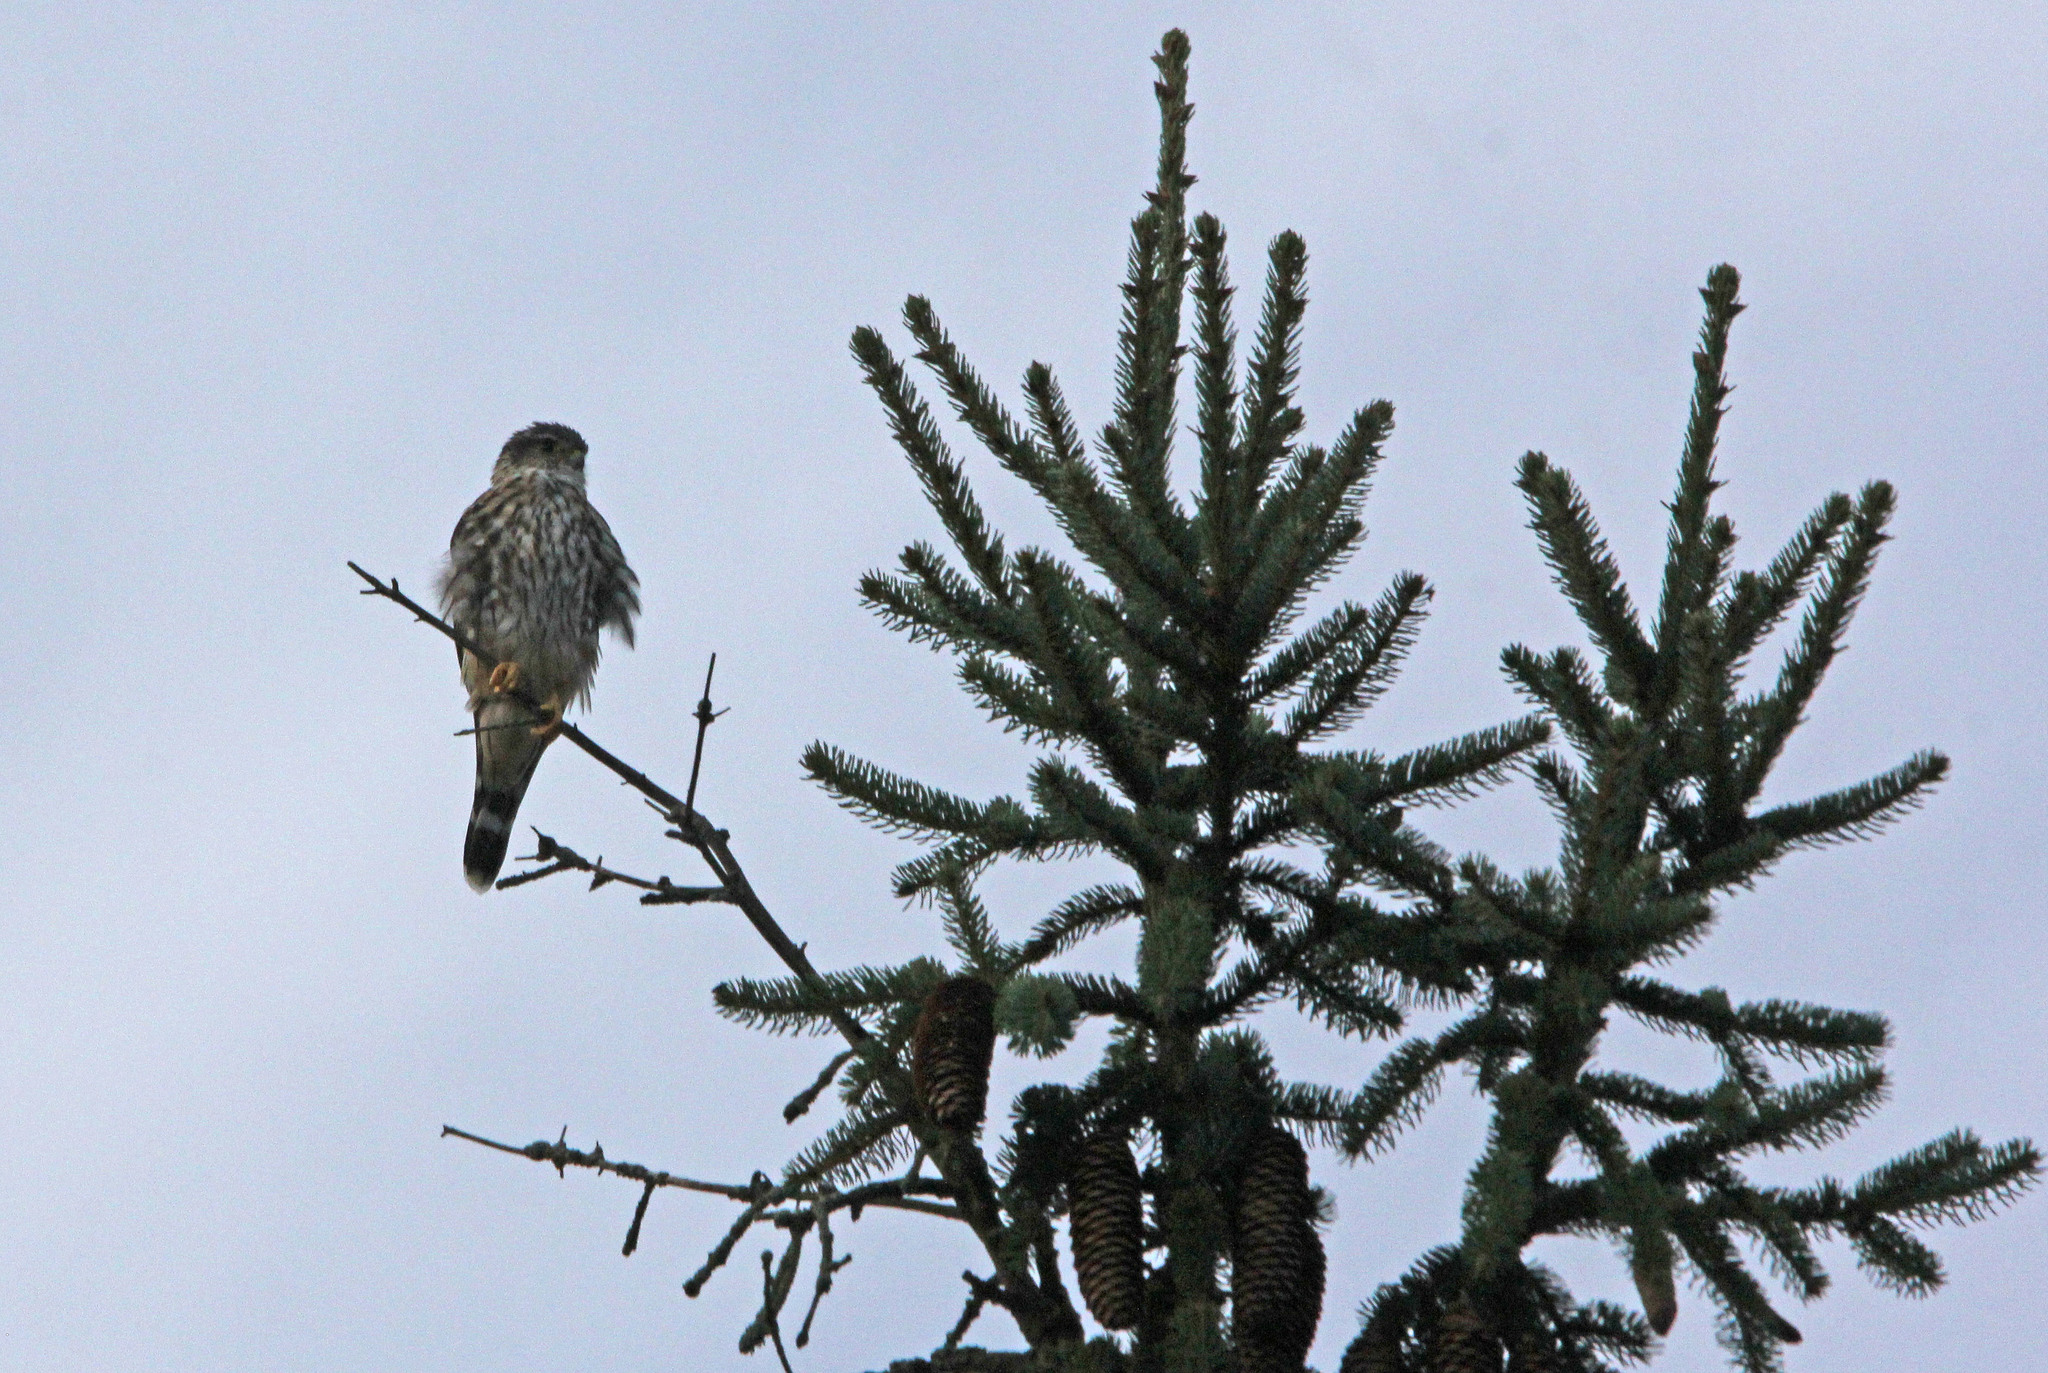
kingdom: Animalia
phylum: Chordata
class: Aves
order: Falconiformes
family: Falconidae
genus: Falco
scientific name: Falco columbarius
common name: Merlin
